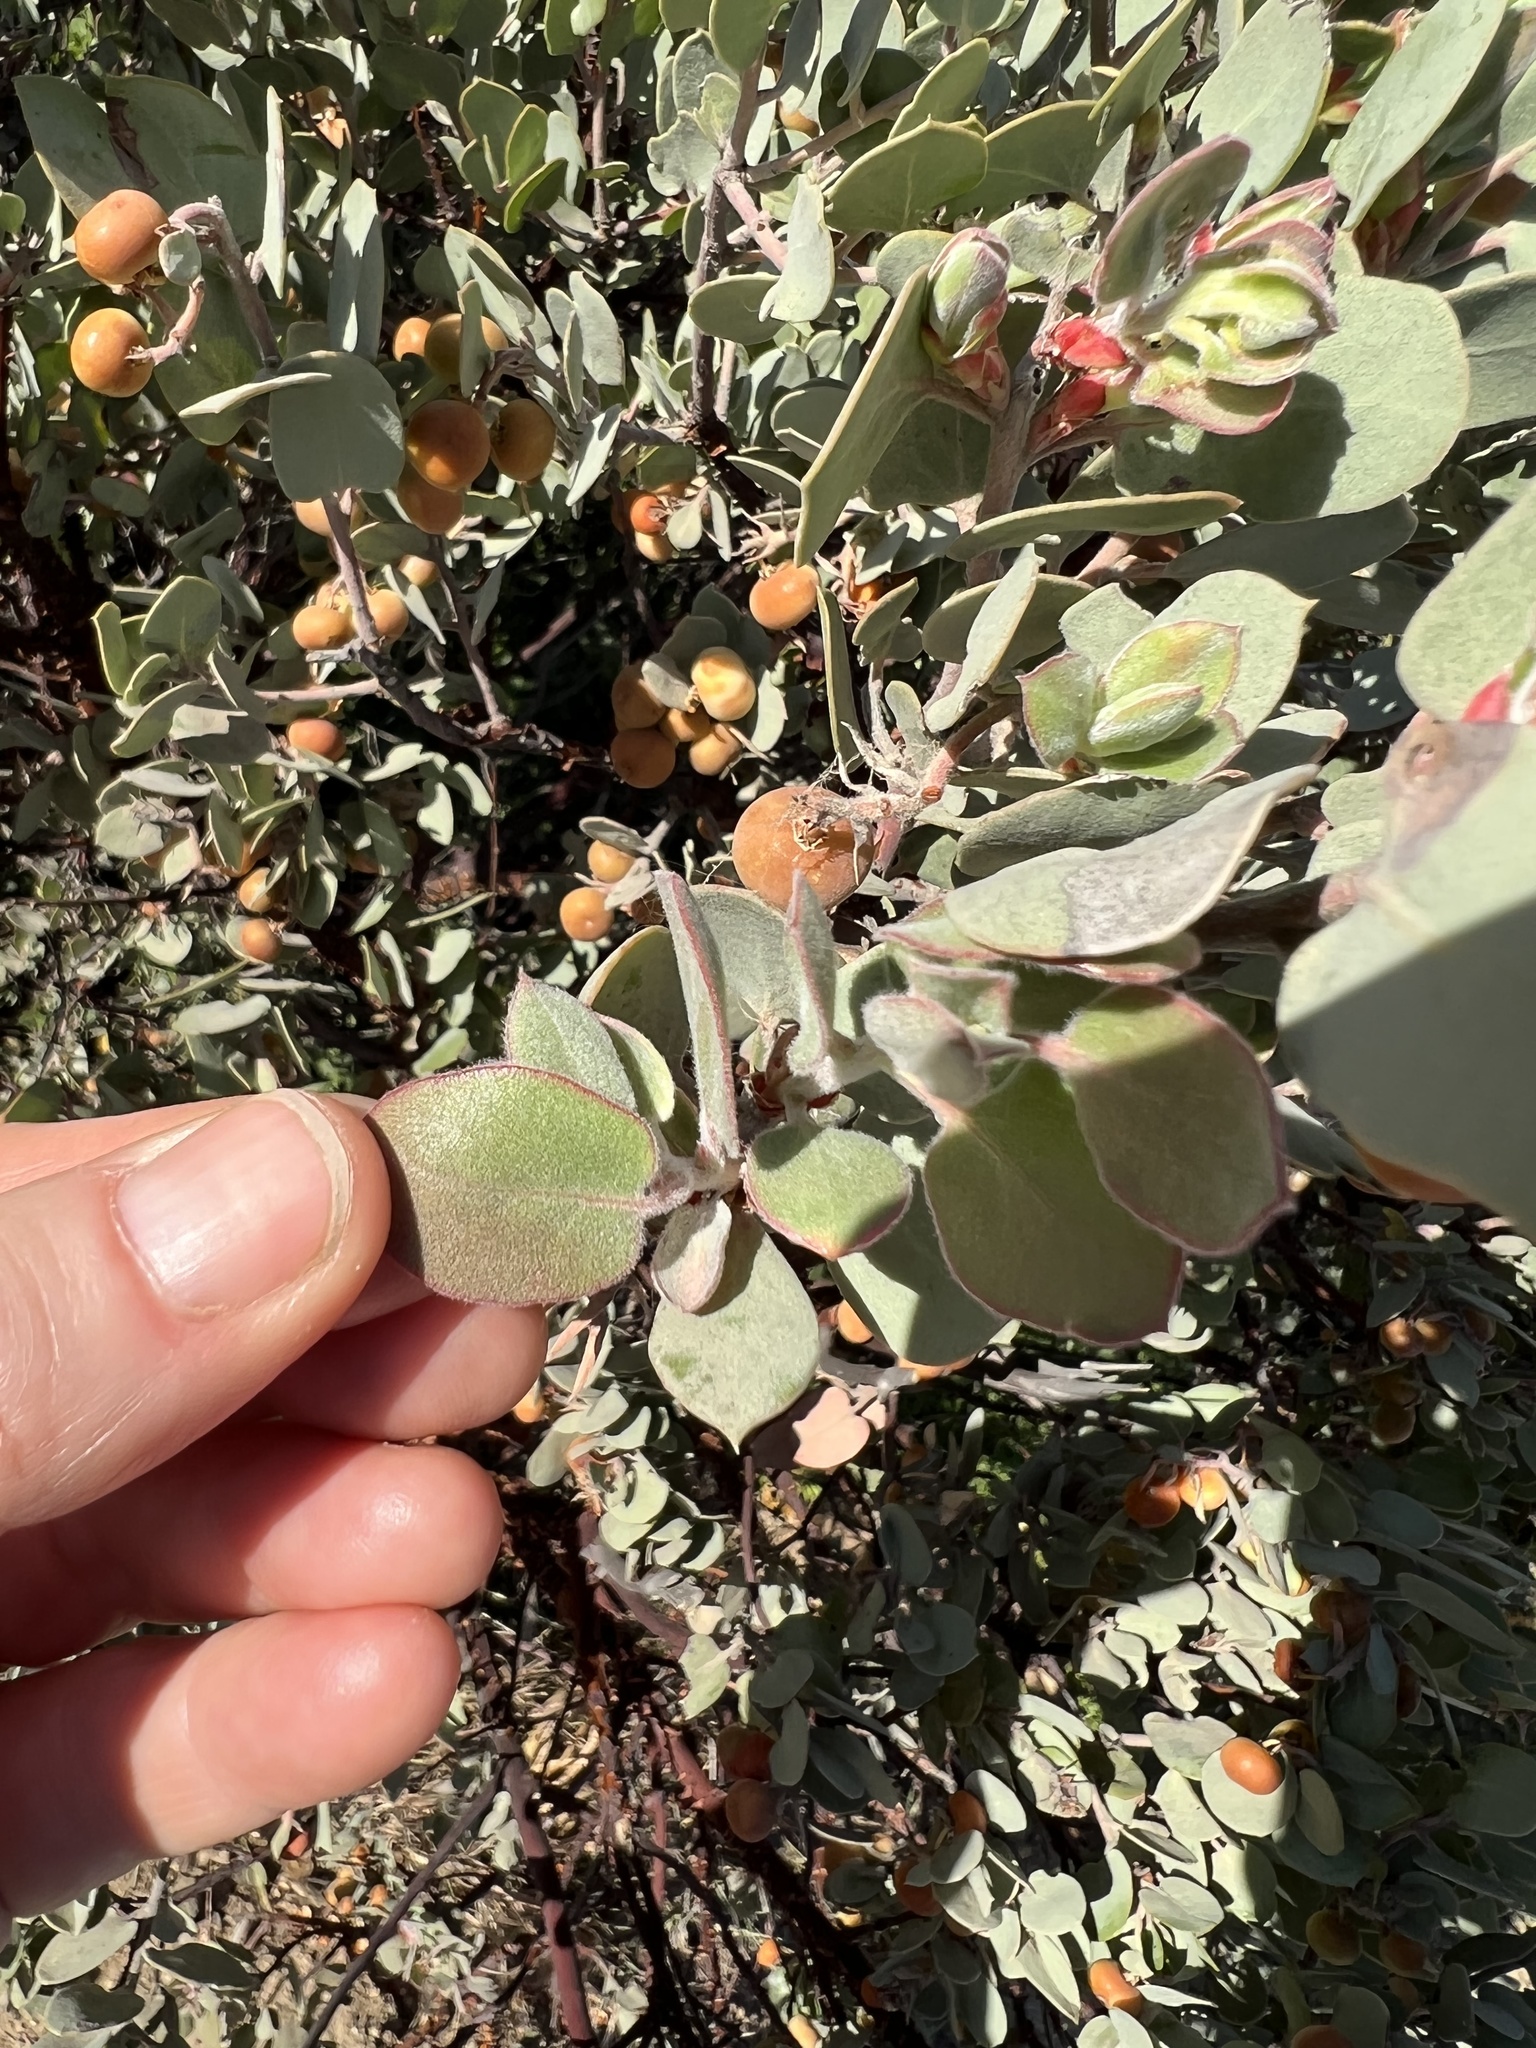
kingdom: Plantae
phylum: Tracheophyta
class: Magnoliopsida
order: Ericales
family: Ericaceae
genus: Arctostaphylos
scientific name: Arctostaphylos obispoensis
